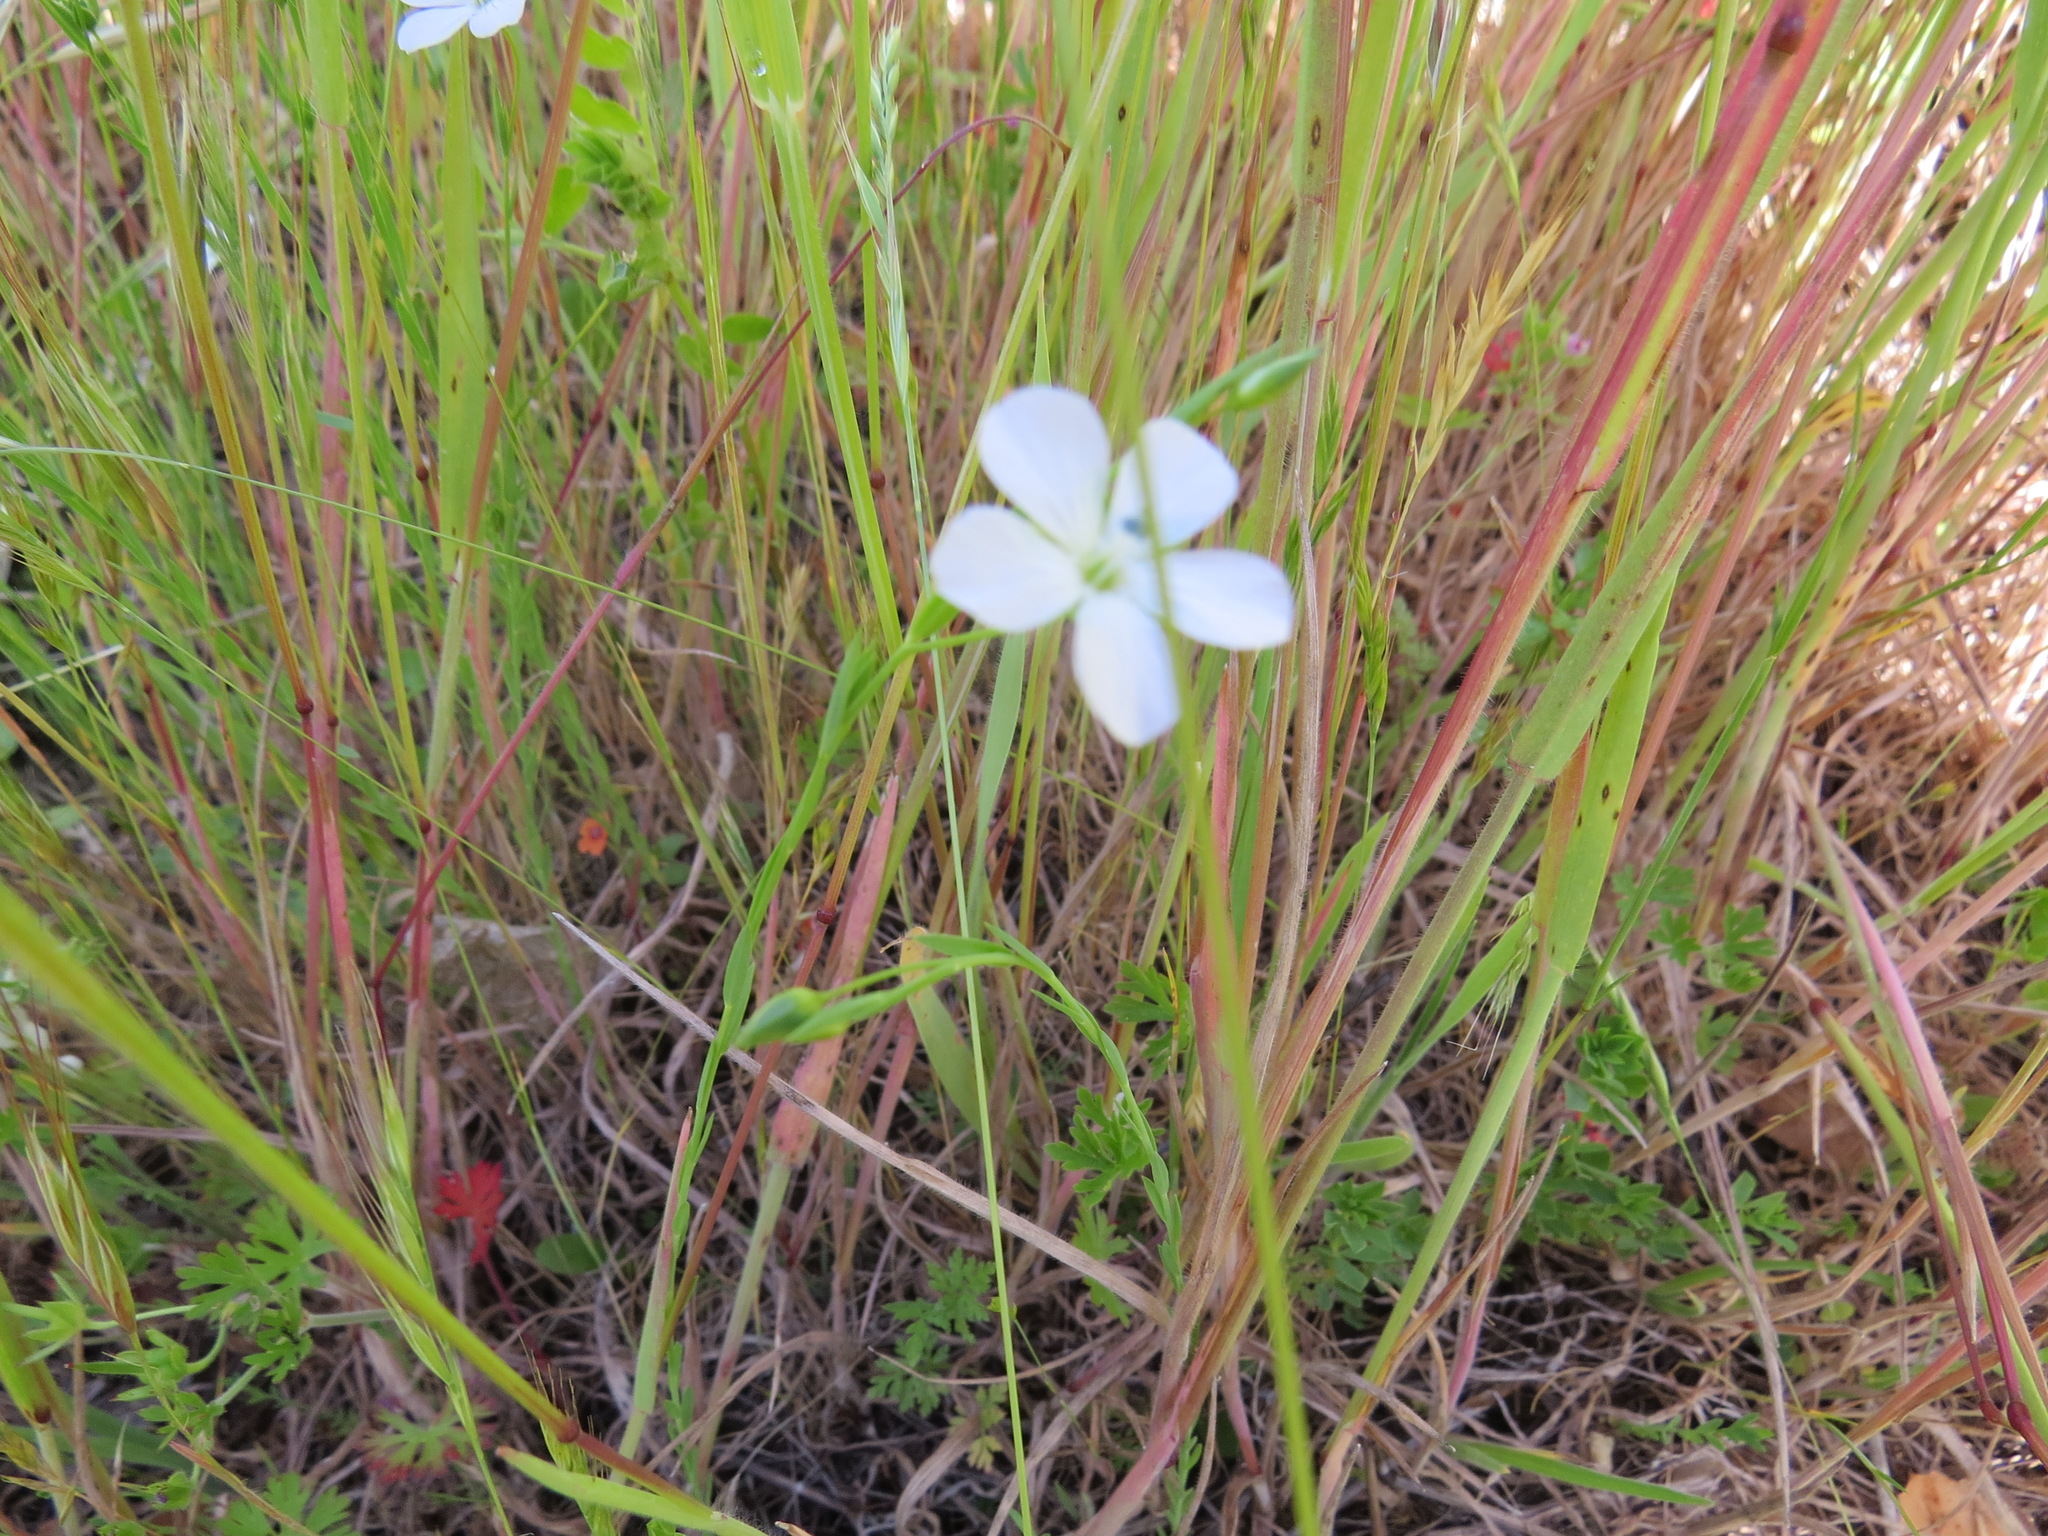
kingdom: Plantae
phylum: Tracheophyta
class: Magnoliopsida
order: Malpighiales
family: Linaceae
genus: Linum
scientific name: Linum bienne
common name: Pale flax
